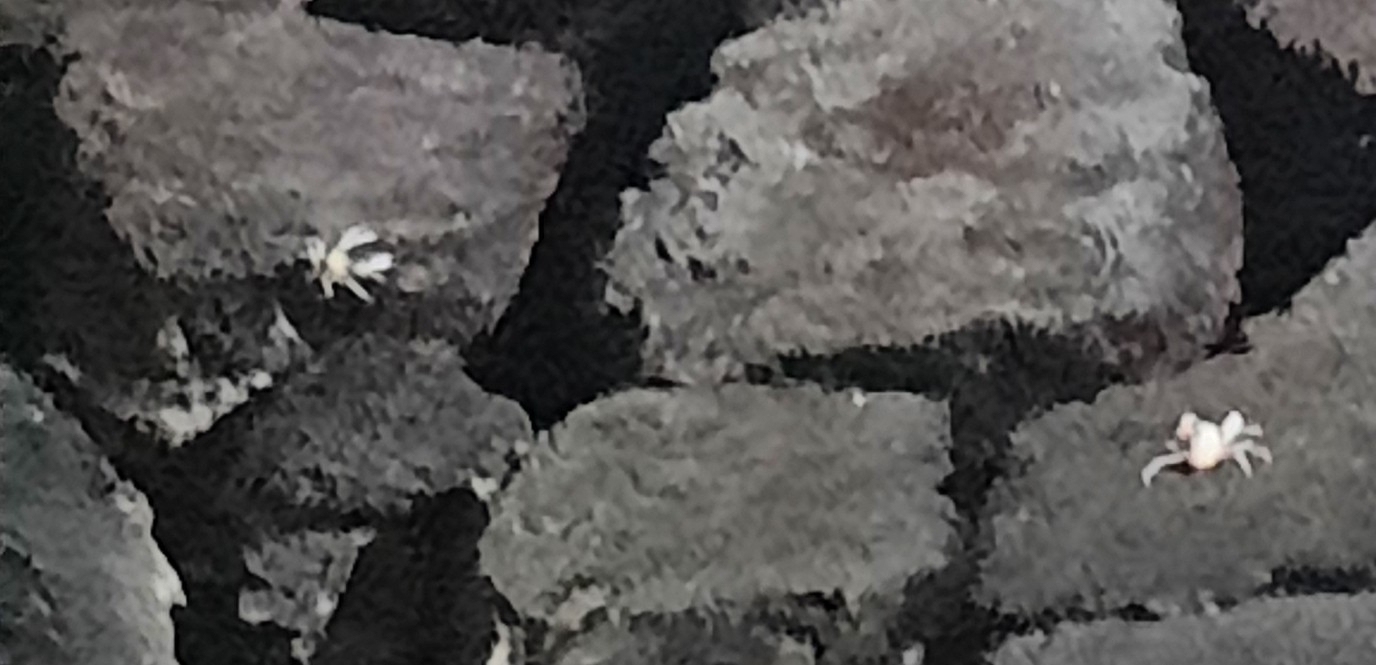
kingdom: Animalia
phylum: Arthropoda
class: Malacostraca
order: Decapoda
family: Munidopsidae
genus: Munidopsis
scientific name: Munidopsis polymorpha
